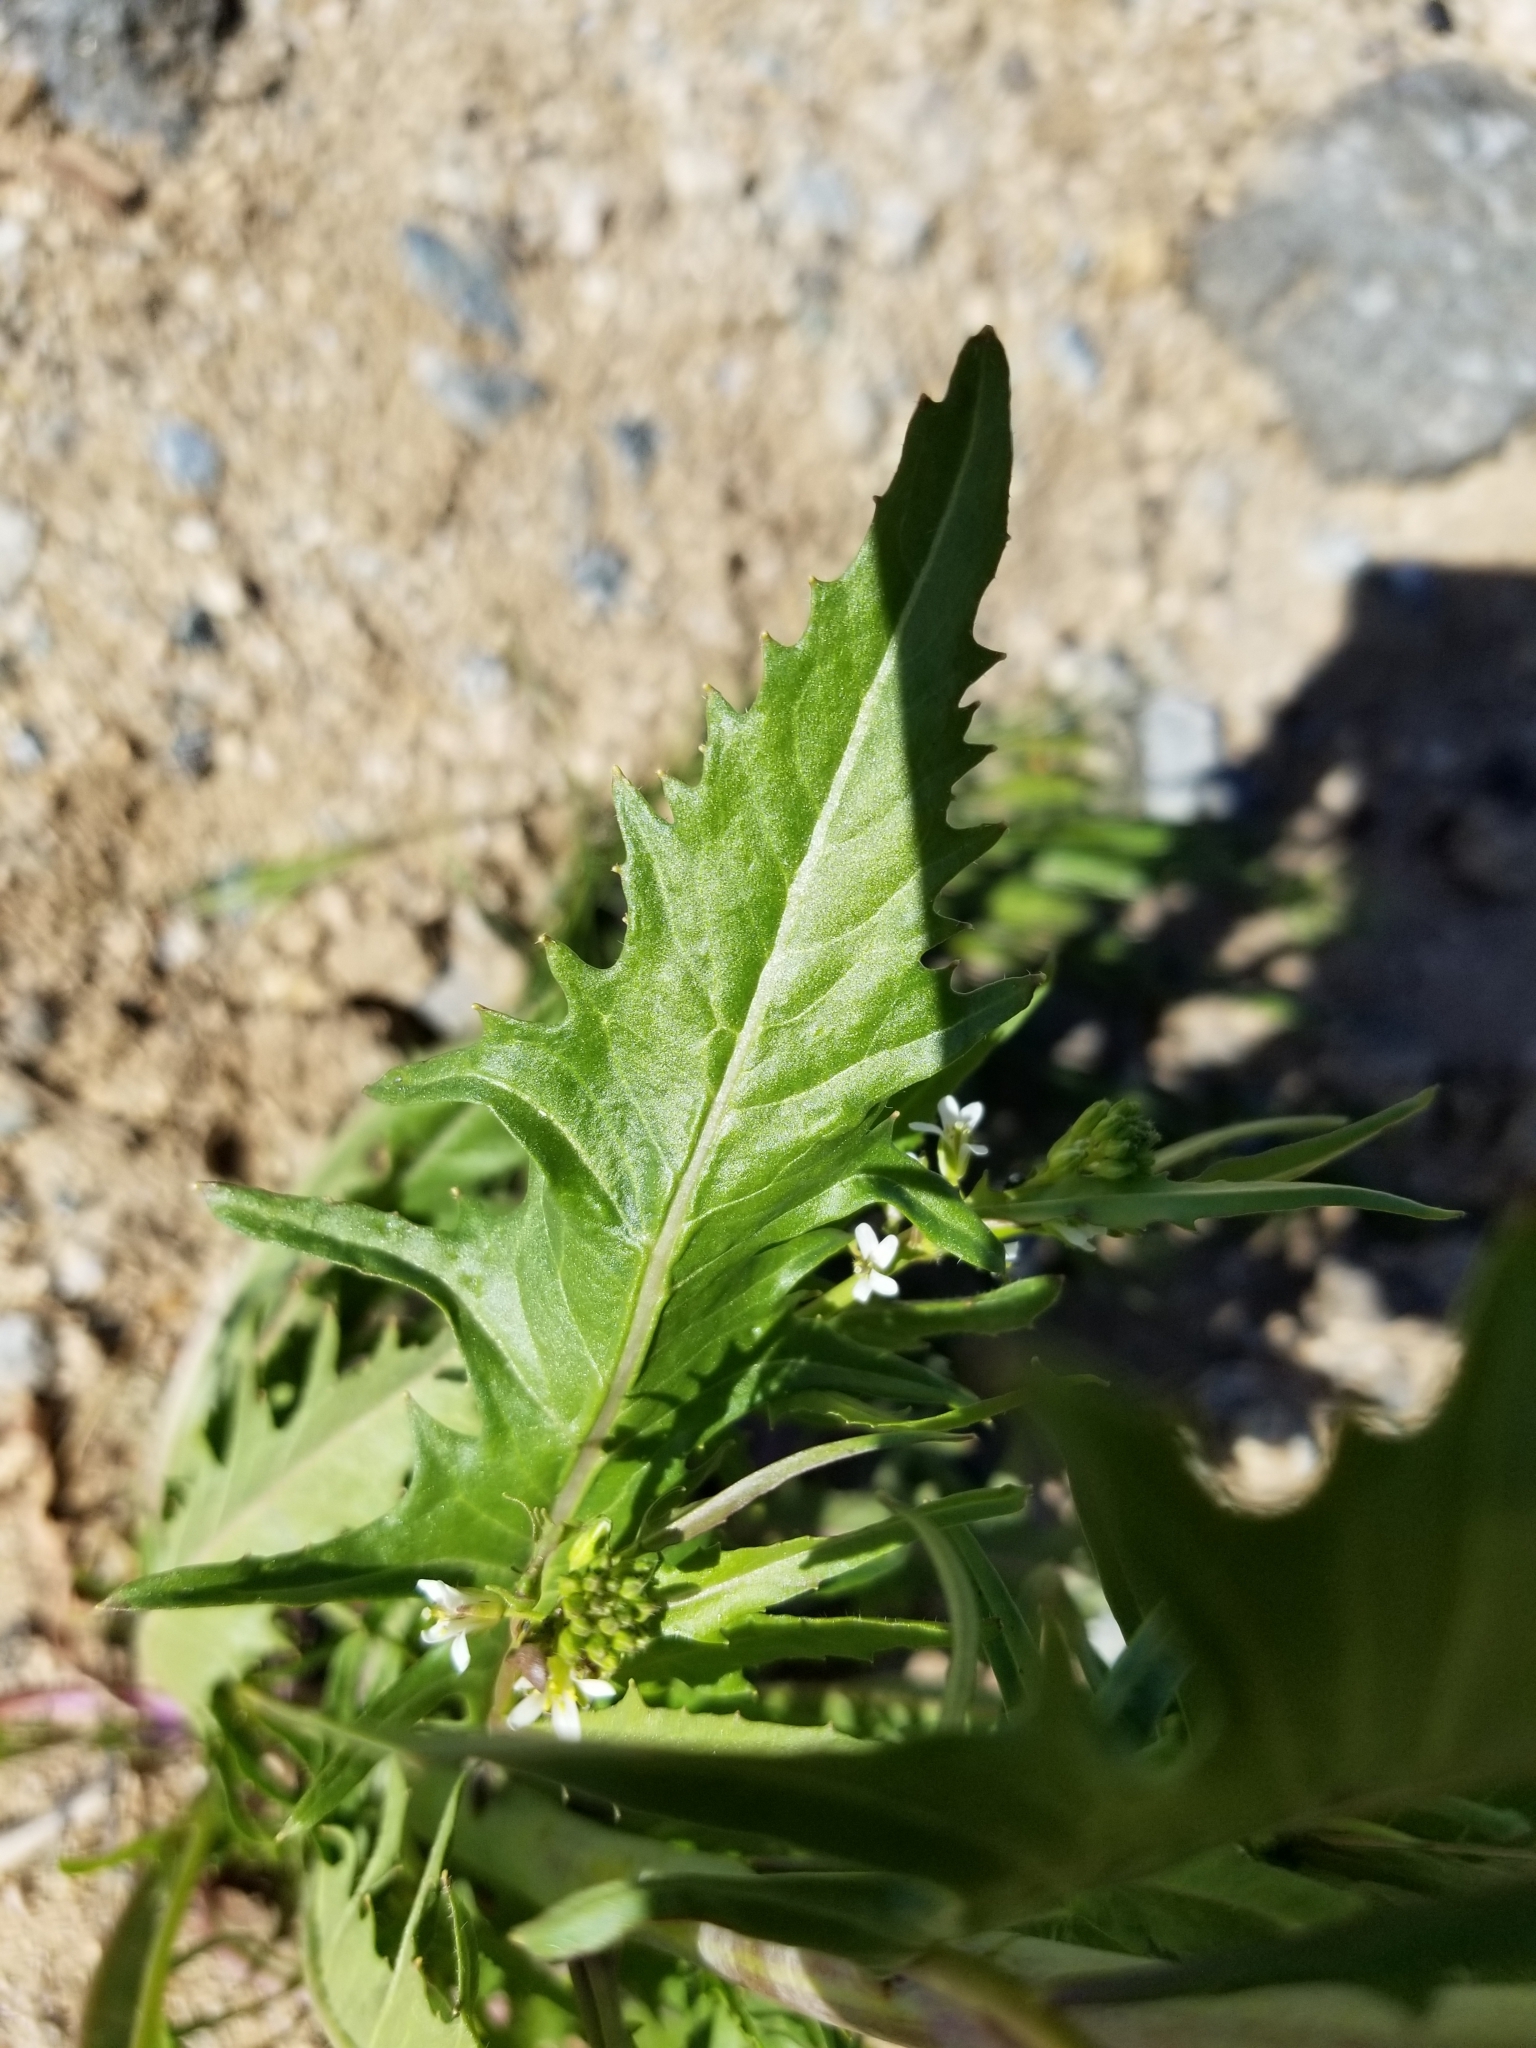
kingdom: Plantae
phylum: Tracheophyta
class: Magnoliopsida
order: Brassicales
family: Brassicaceae
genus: Streptanthus
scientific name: Streptanthus lasiophyllus
